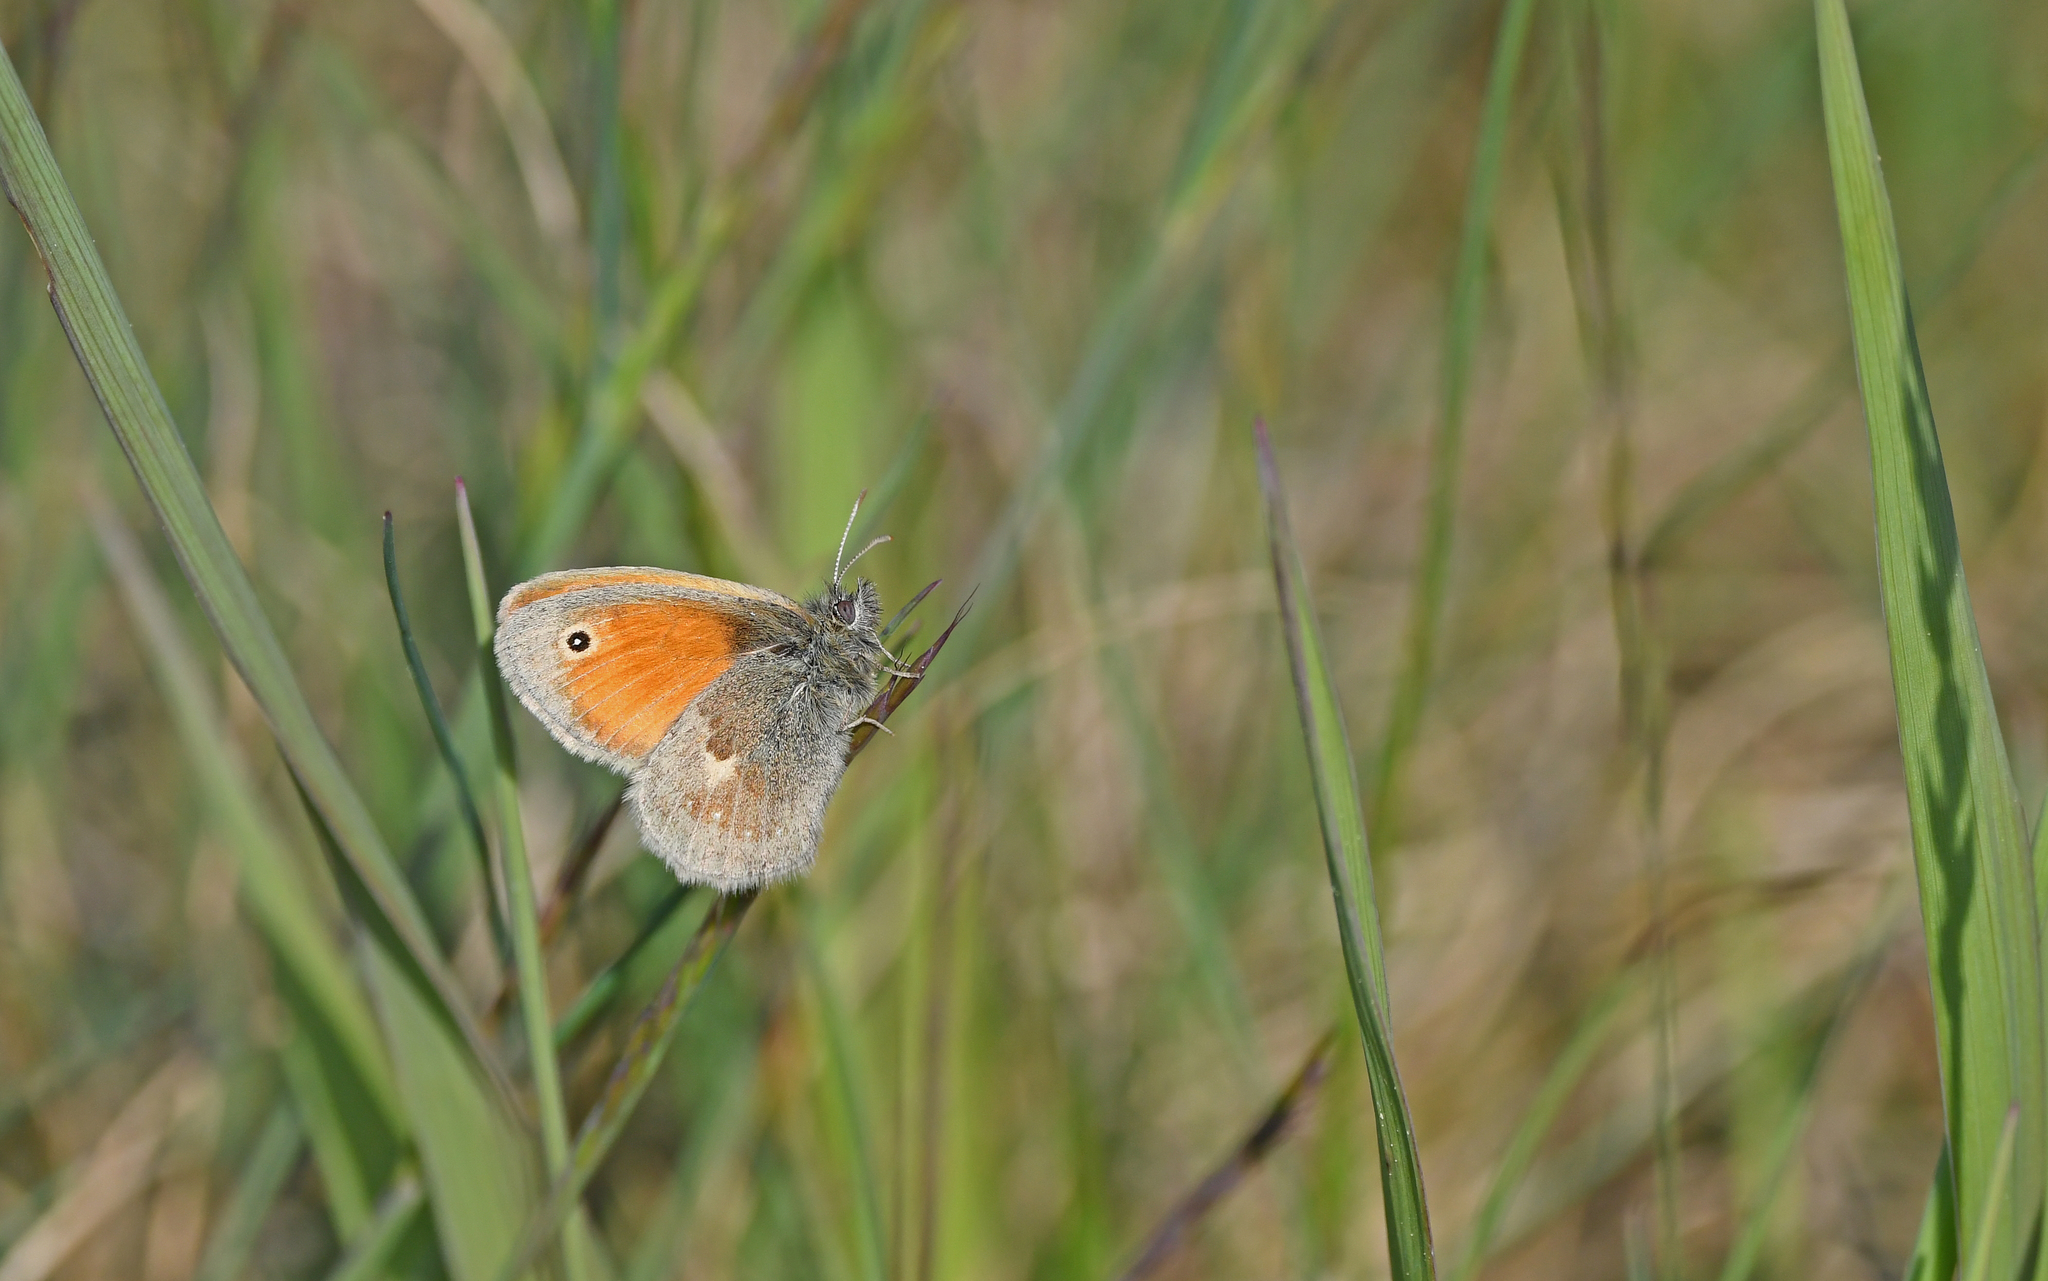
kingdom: Animalia
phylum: Arthropoda
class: Insecta
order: Lepidoptera
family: Nymphalidae
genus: Coenonympha
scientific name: Coenonympha pamphilus
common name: Small heath
